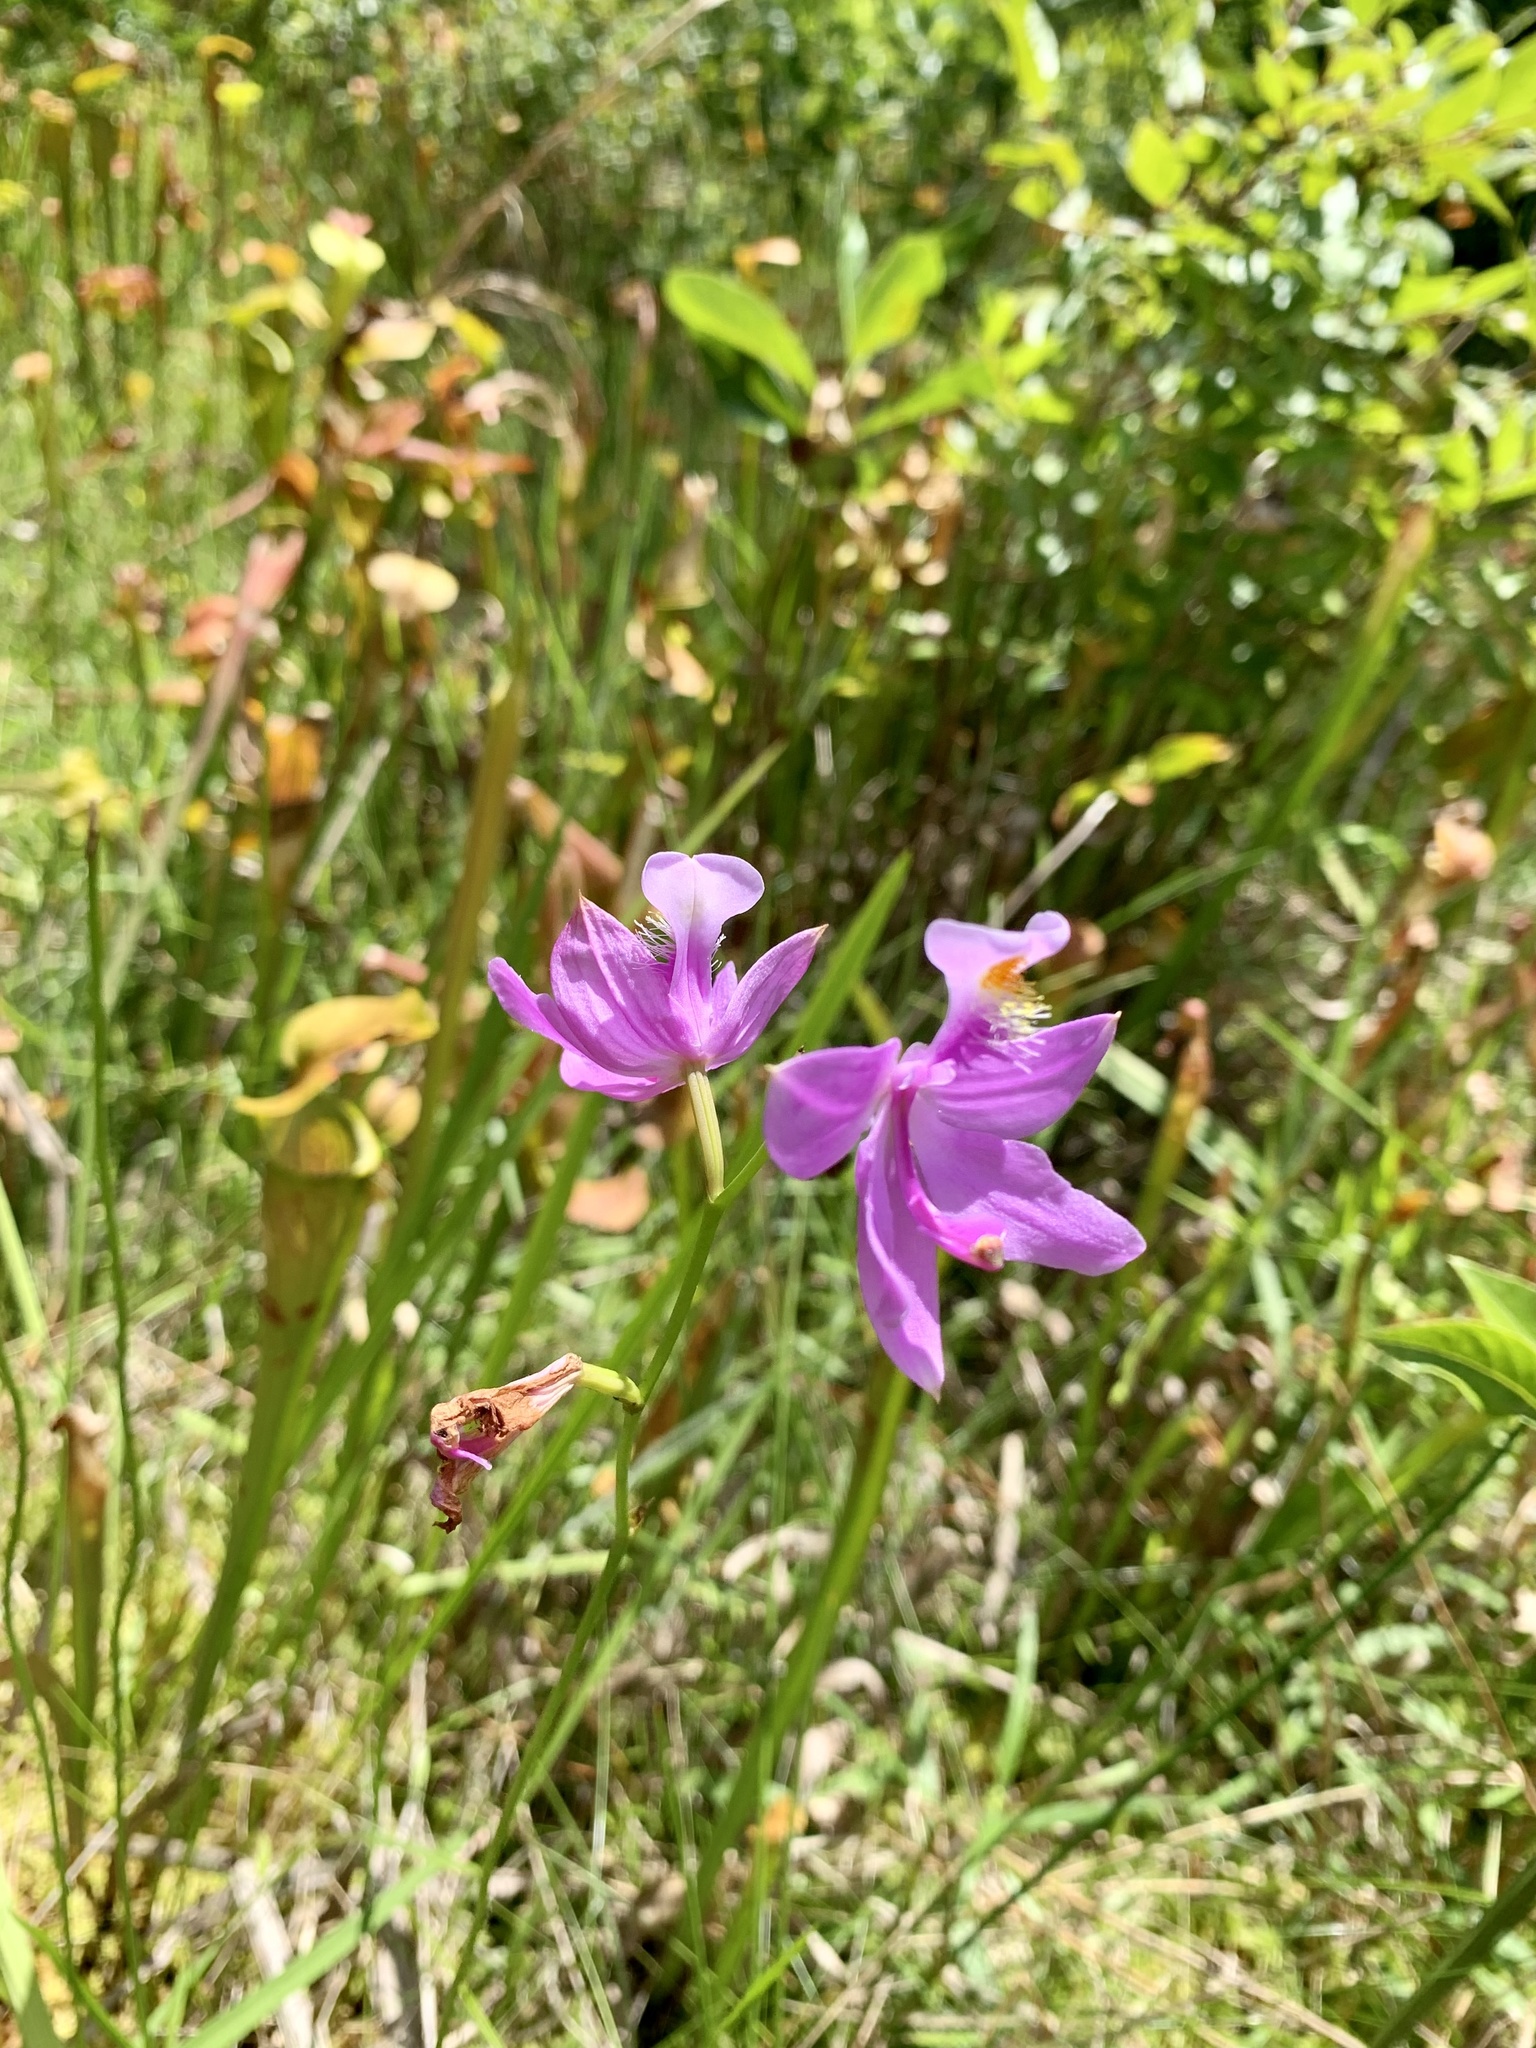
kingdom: Plantae
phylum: Tracheophyta
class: Liliopsida
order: Asparagales
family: Orchidaceae
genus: Calopogon
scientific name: Calopogon tuberosus
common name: Grass-pink
